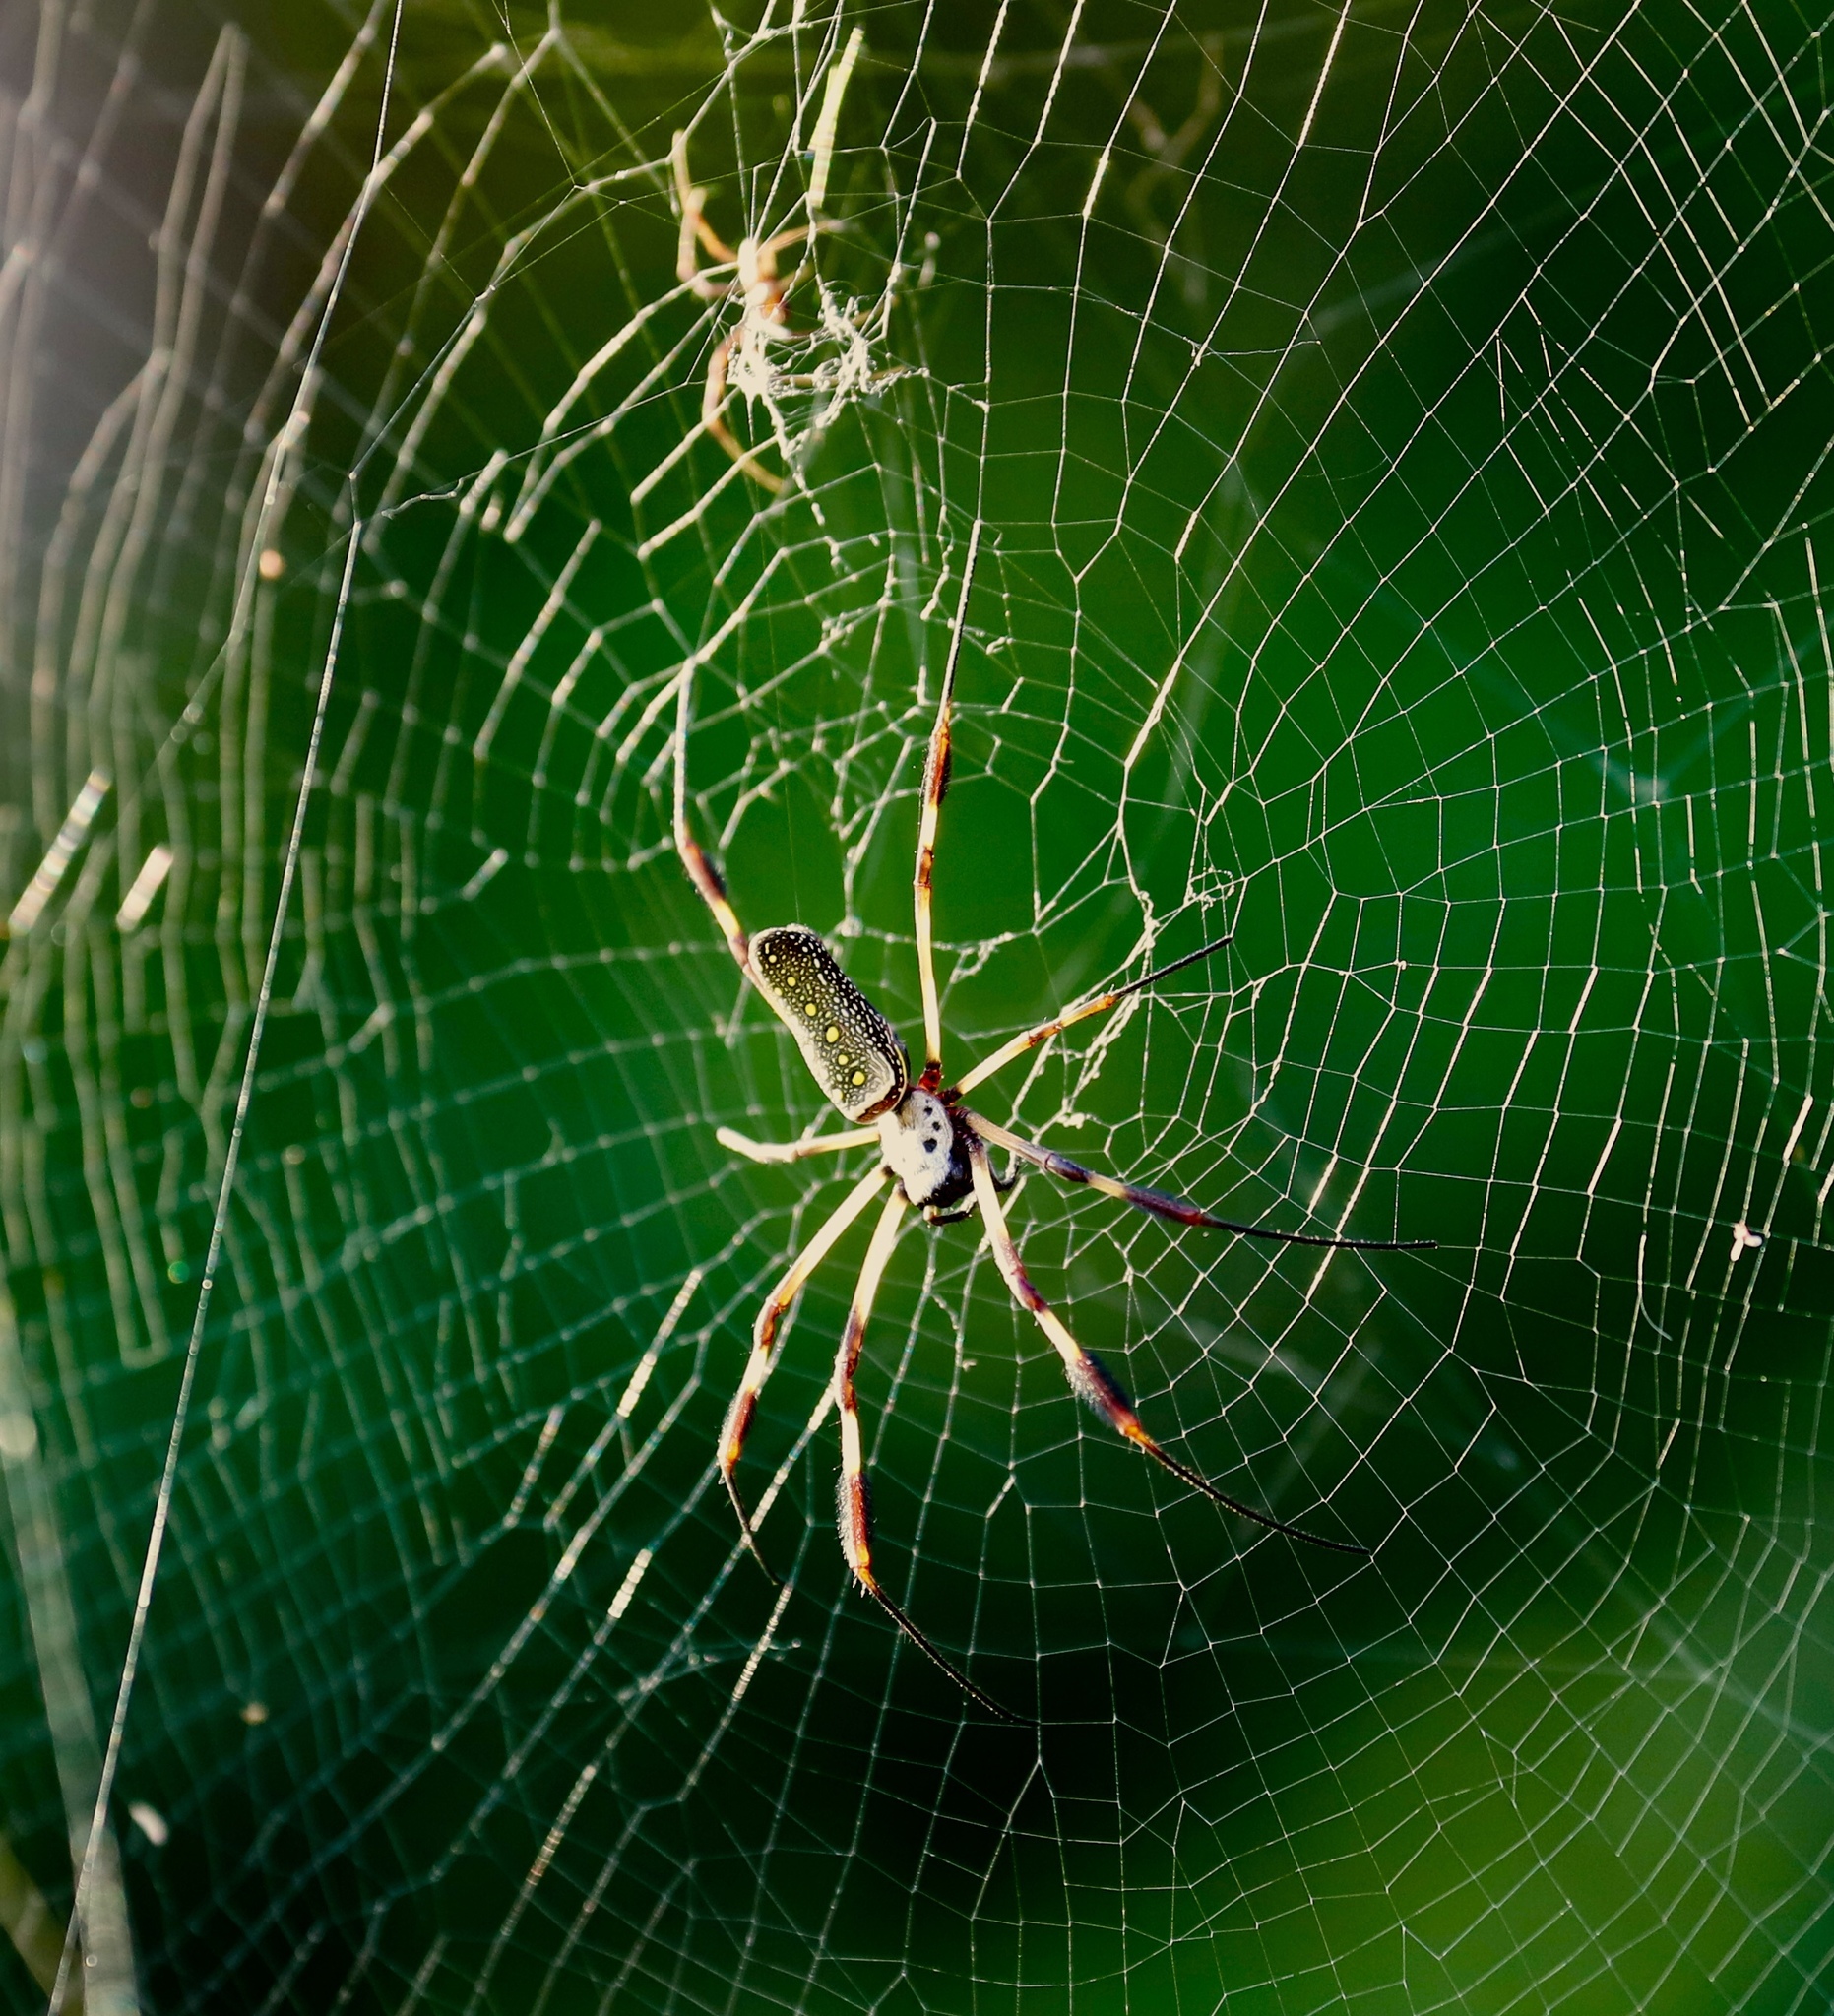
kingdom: Animalia
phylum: Arthropoda
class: Arachnida
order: Araneae
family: Araneidae
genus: Trichonephila
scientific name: Trichonephila clavipes
